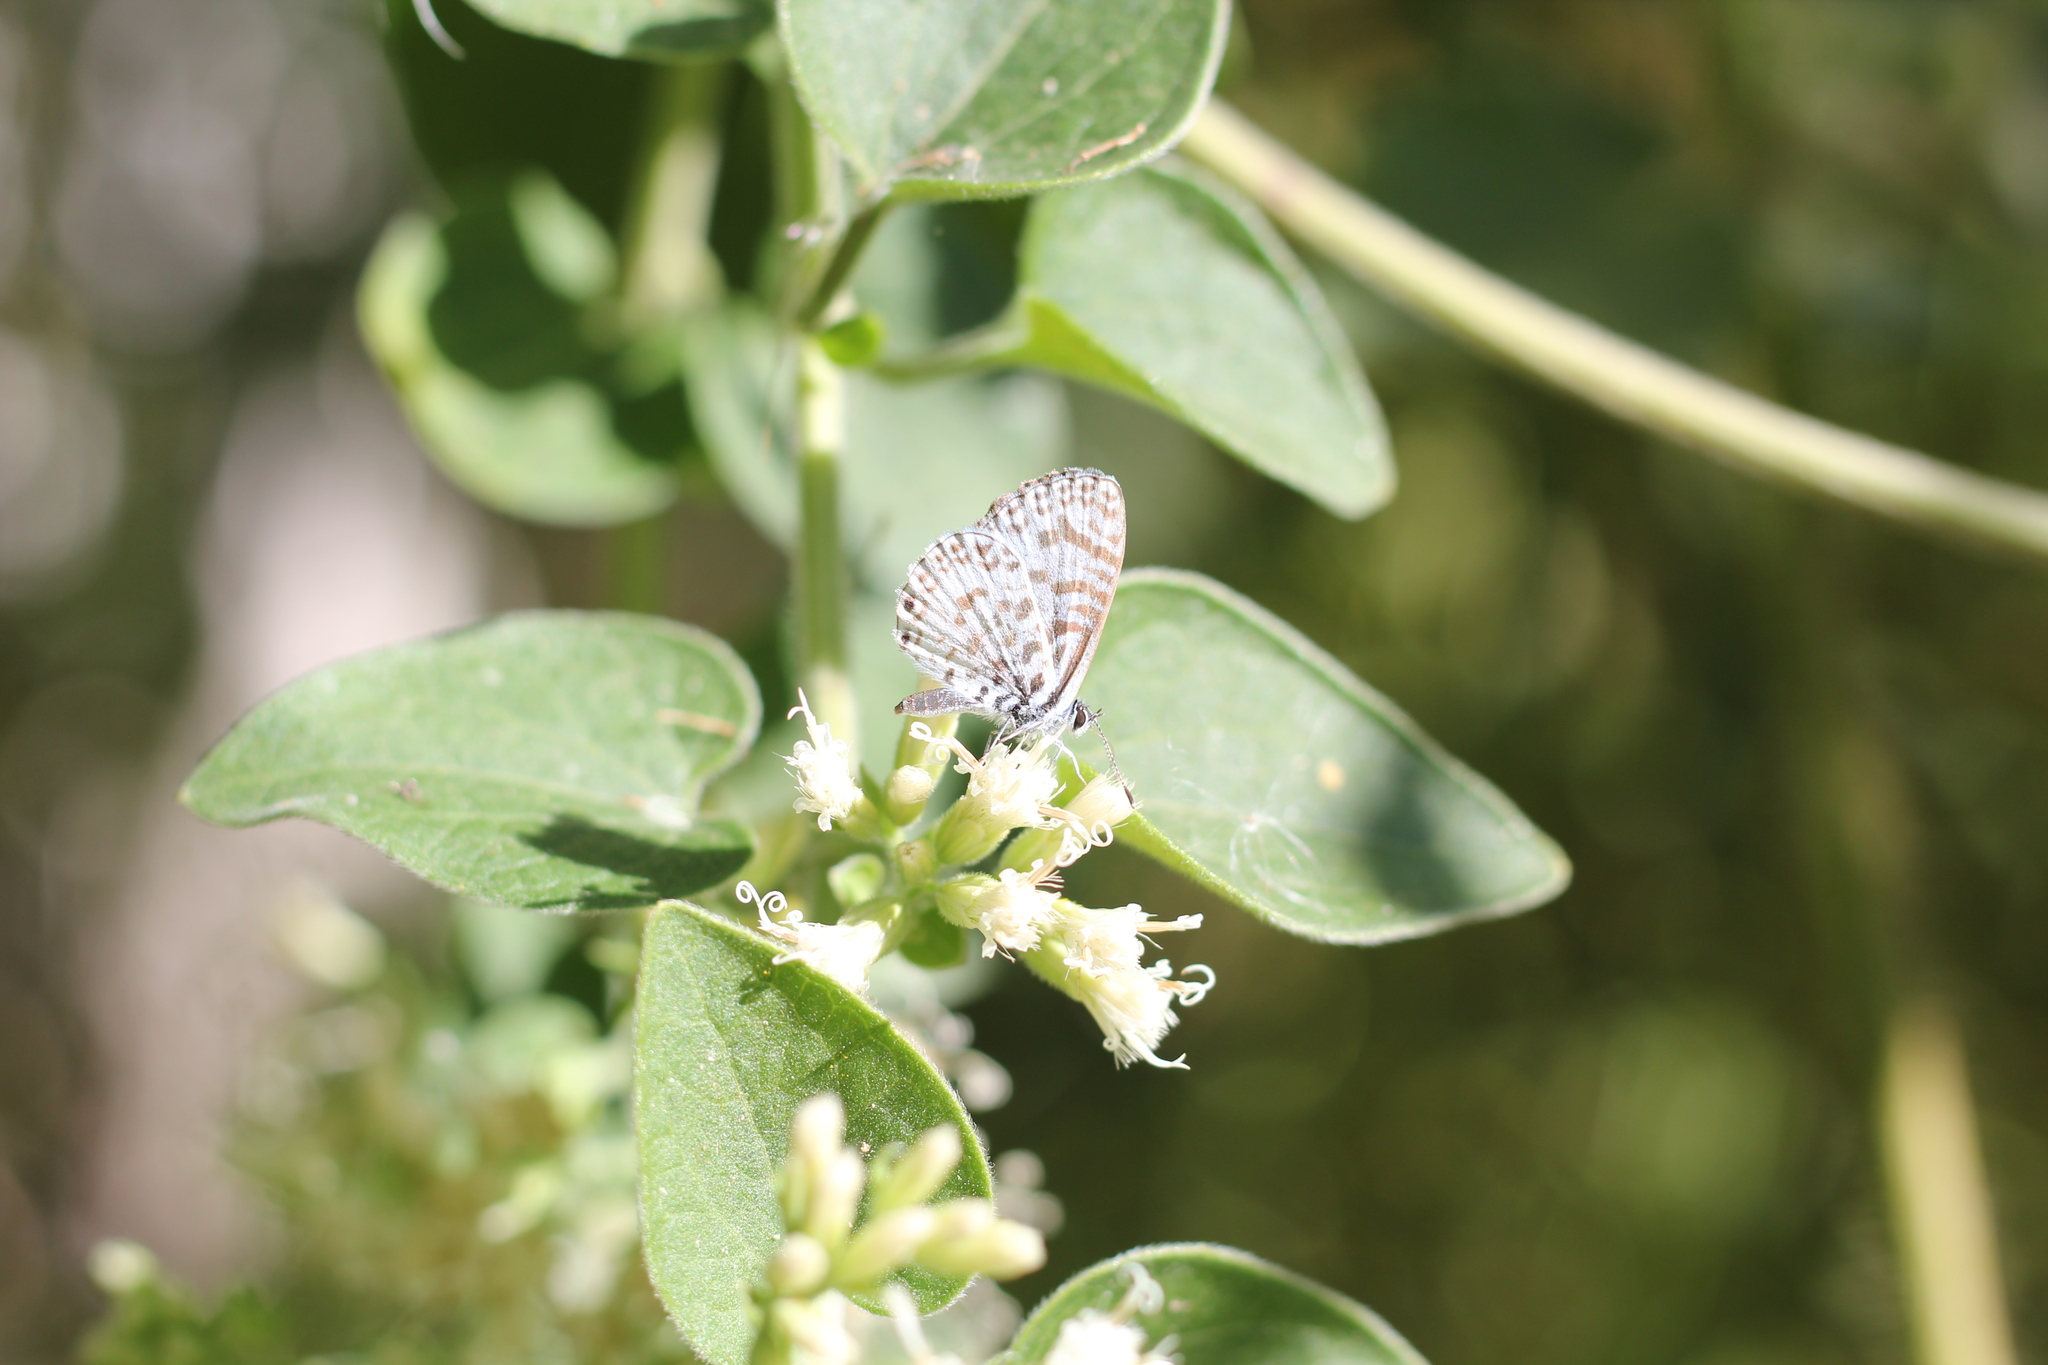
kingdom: Animalia
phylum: Arthropoda
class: Insecta
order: Lepidoptera
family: Lycaenidae
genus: Leptotes
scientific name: Leptotes cassius
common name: Cassius blue
